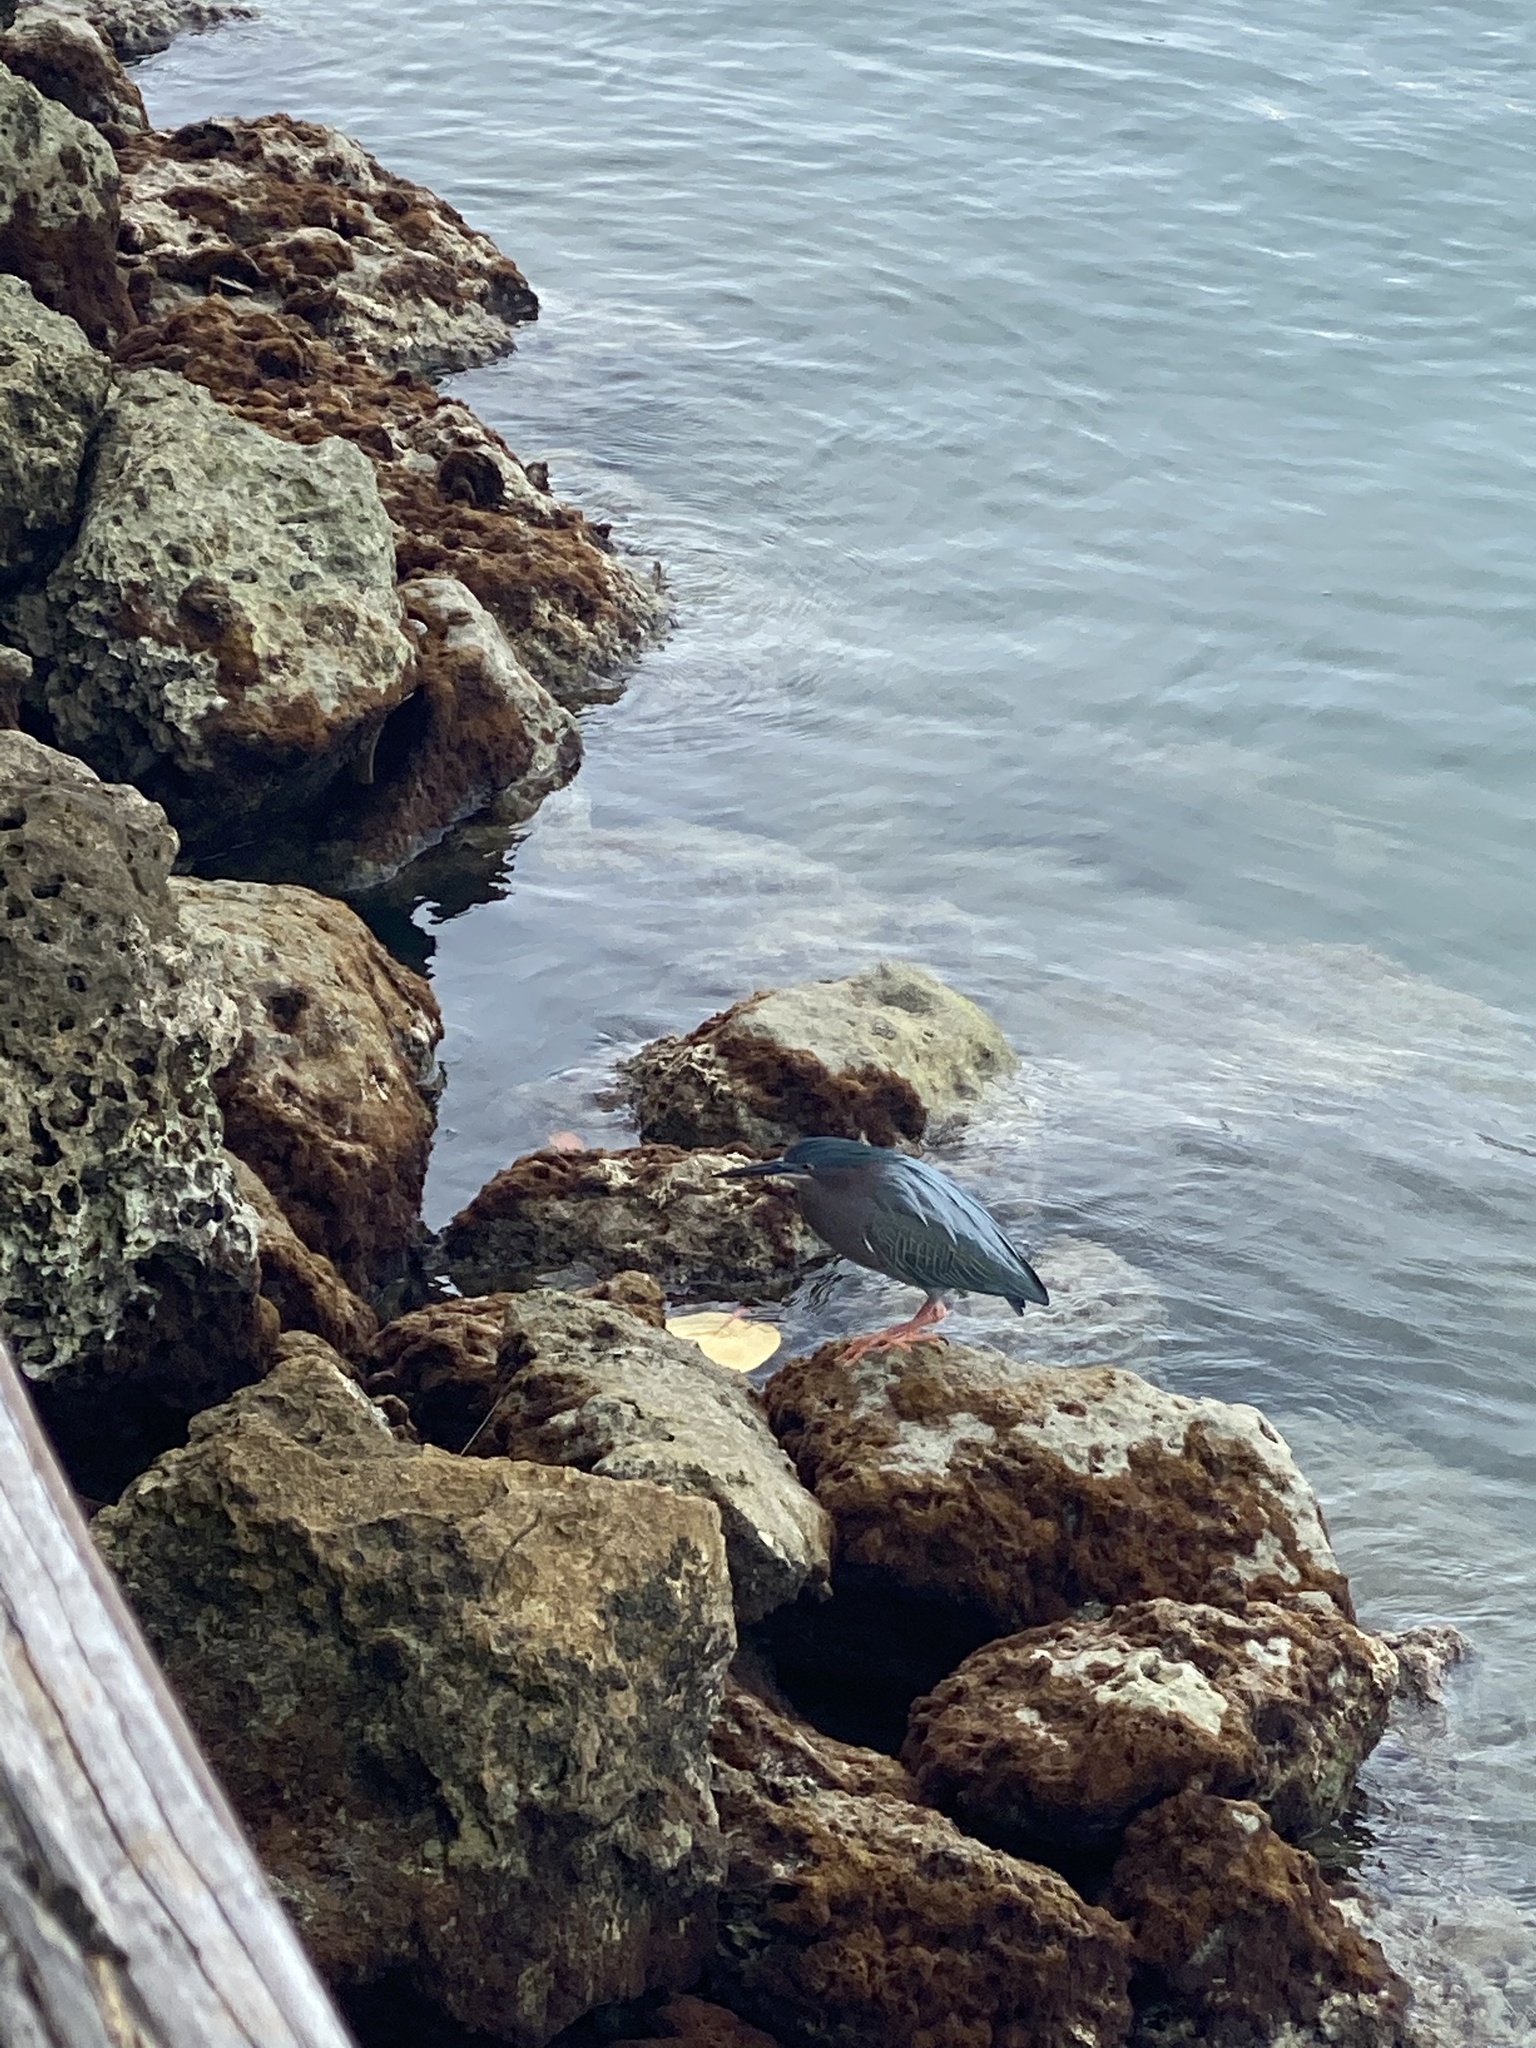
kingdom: Animalia
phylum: Chordata
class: Aves
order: Pelecaniformes
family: Ardeidae
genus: Butorides
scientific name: Butorides virescens
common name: Green heron
